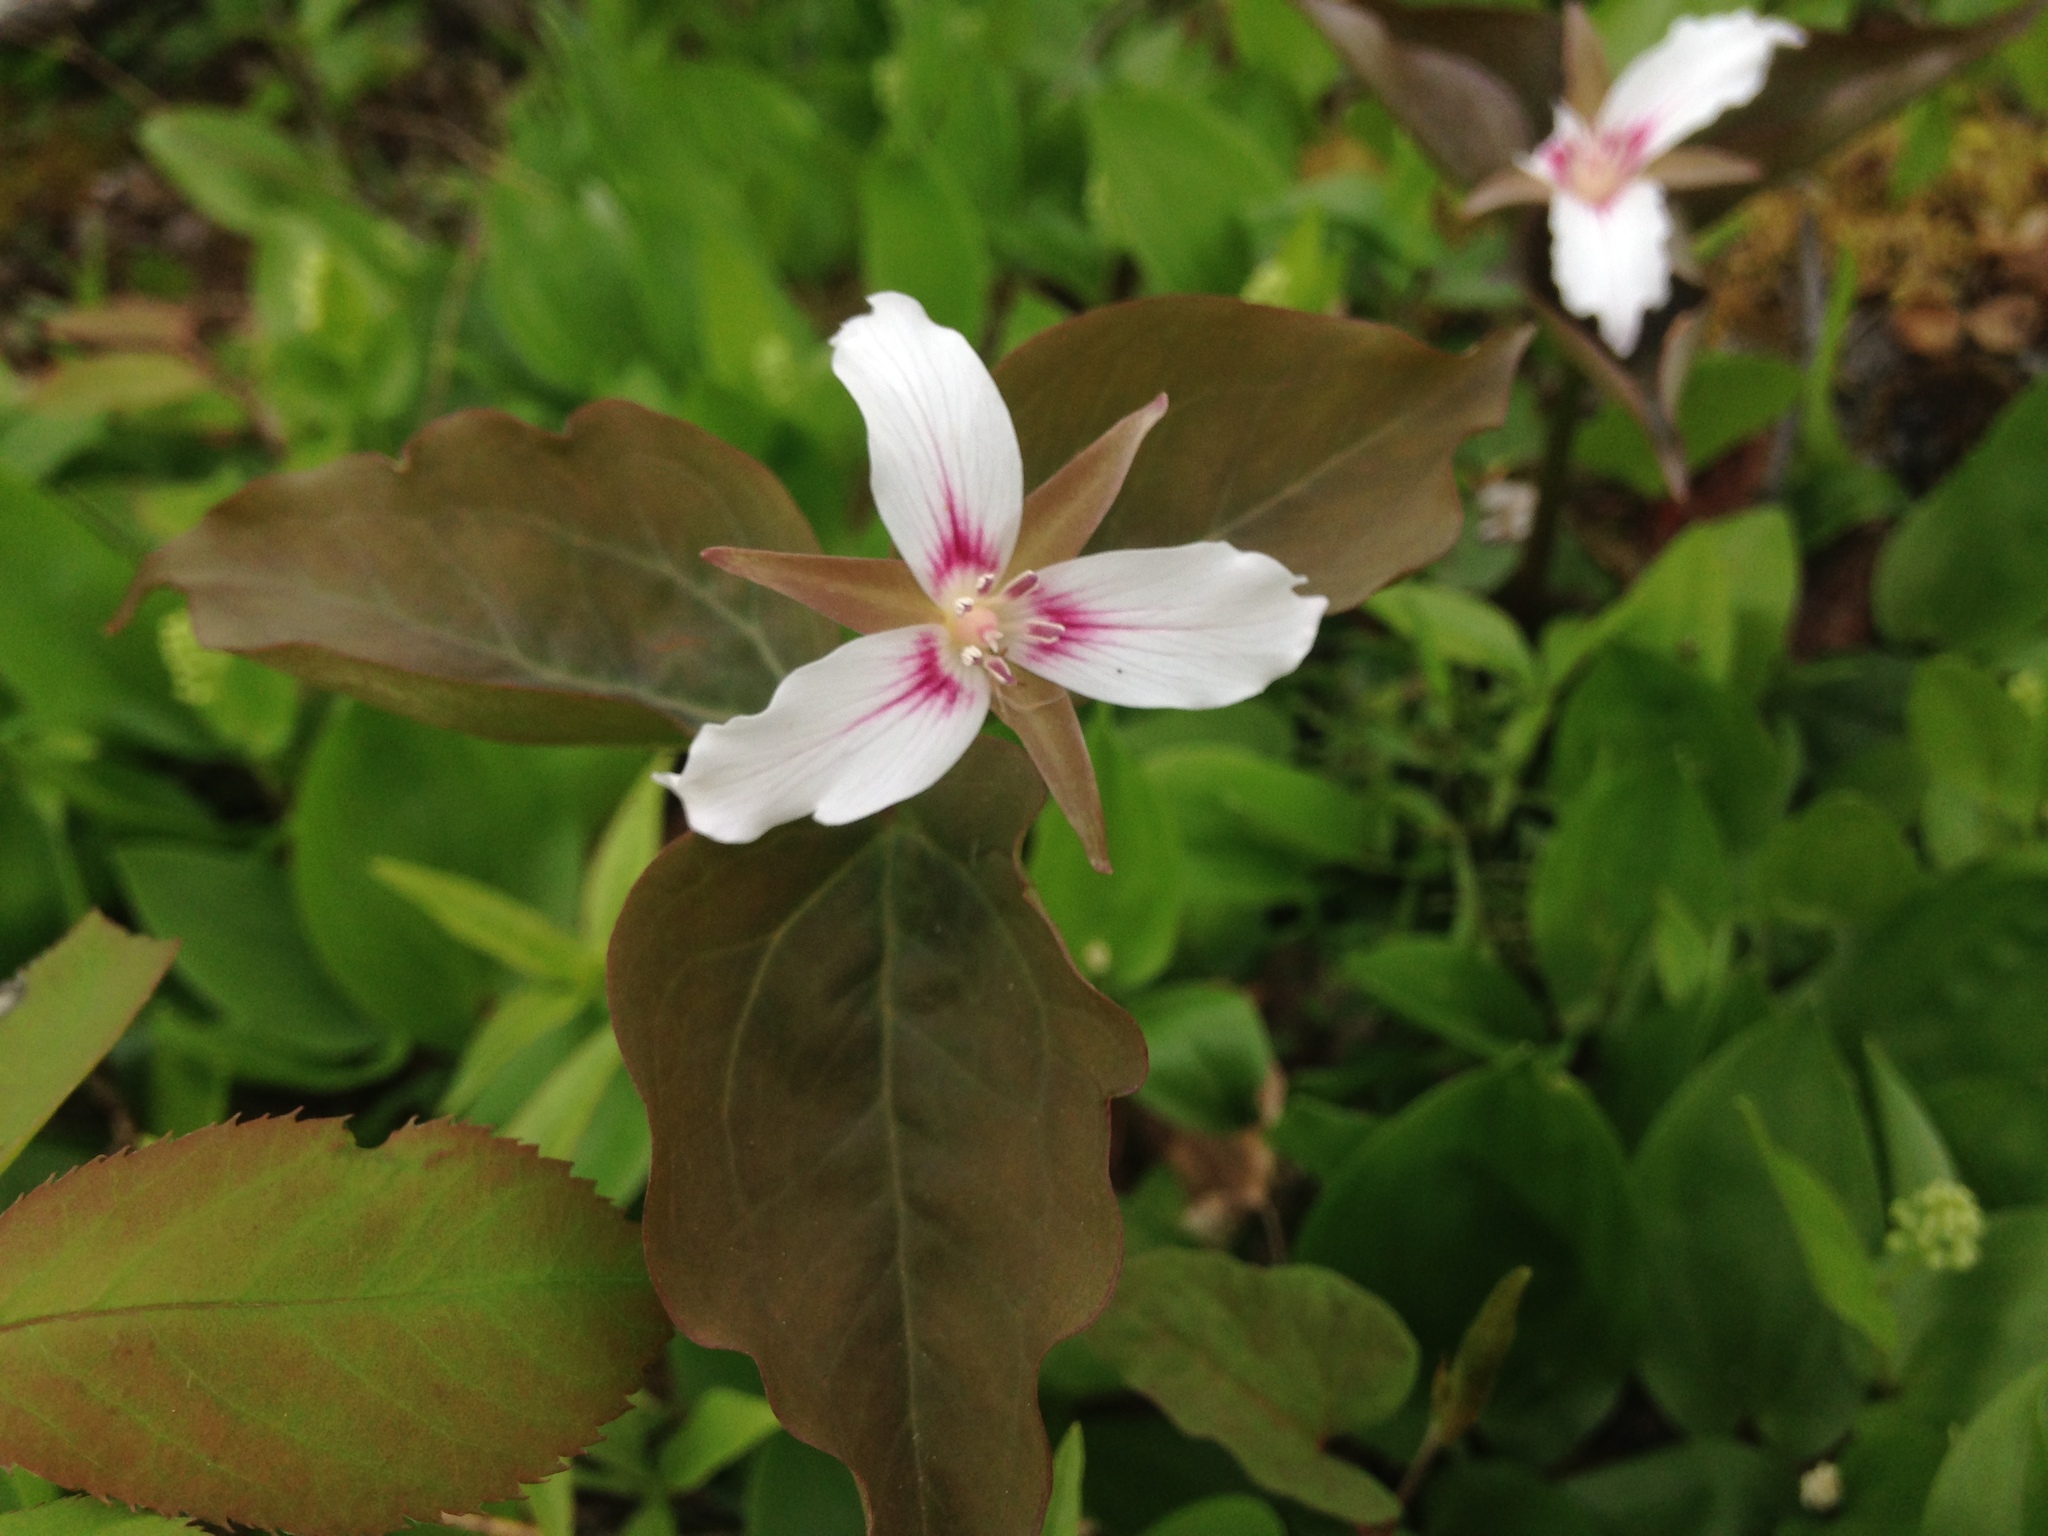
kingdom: Plantae
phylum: Tracheophyta
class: Liliopsida
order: Liliales
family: Melanthiaceae
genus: Trillium
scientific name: Trillium undulatum
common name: Paint trillium
